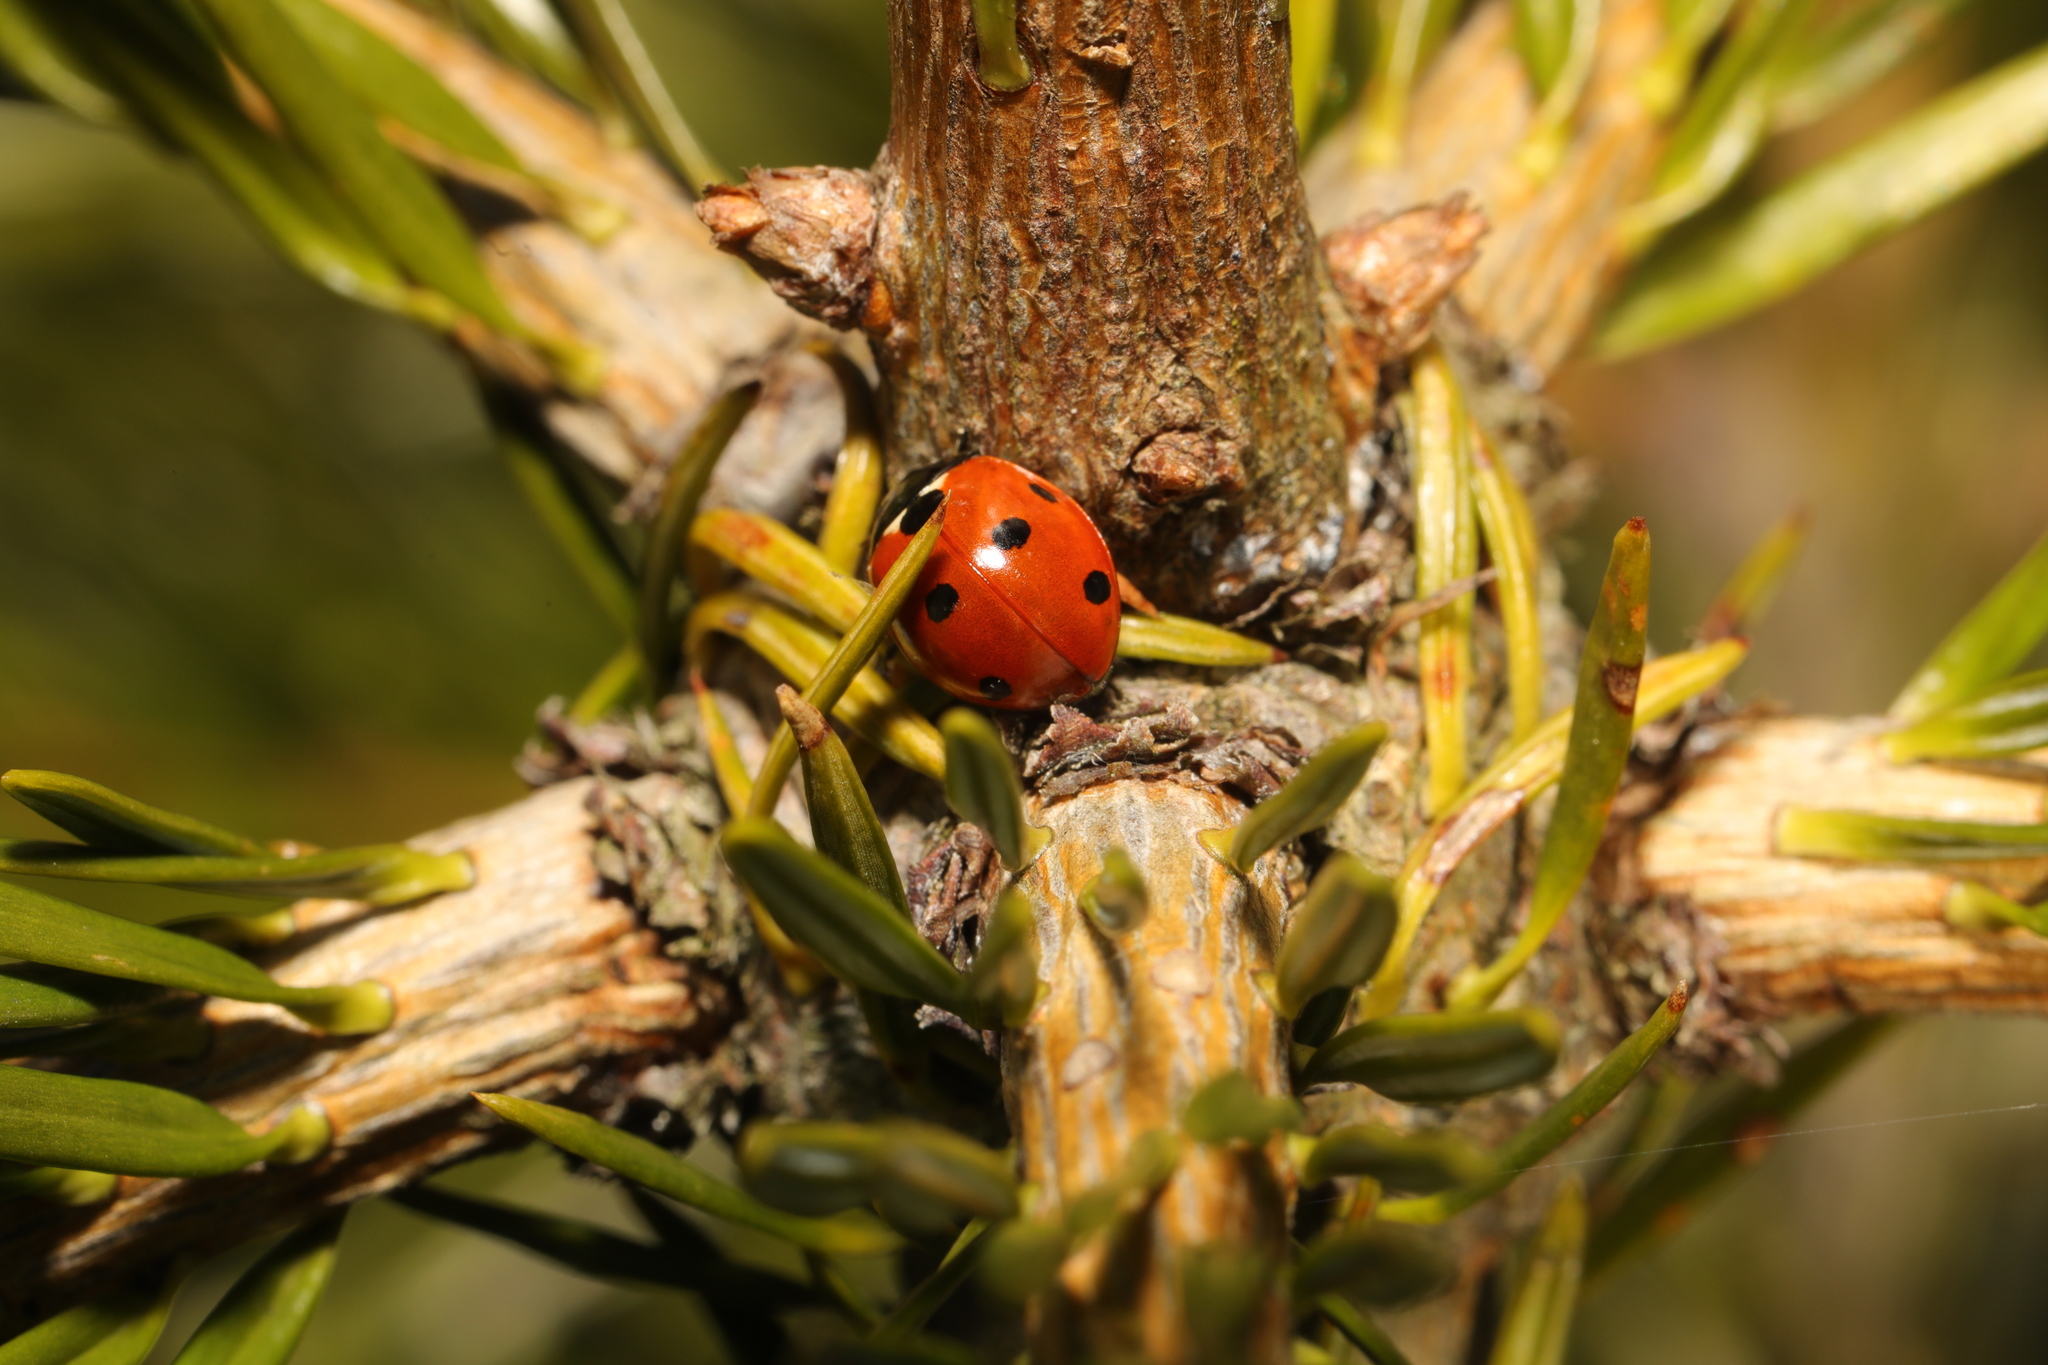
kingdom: Animalia
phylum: Arthropoda
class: Insecta
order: Coleoptera
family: Coccinellidae
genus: Coccinella
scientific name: Coccinella septempunctata
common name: Sevenspotted lady beetle
